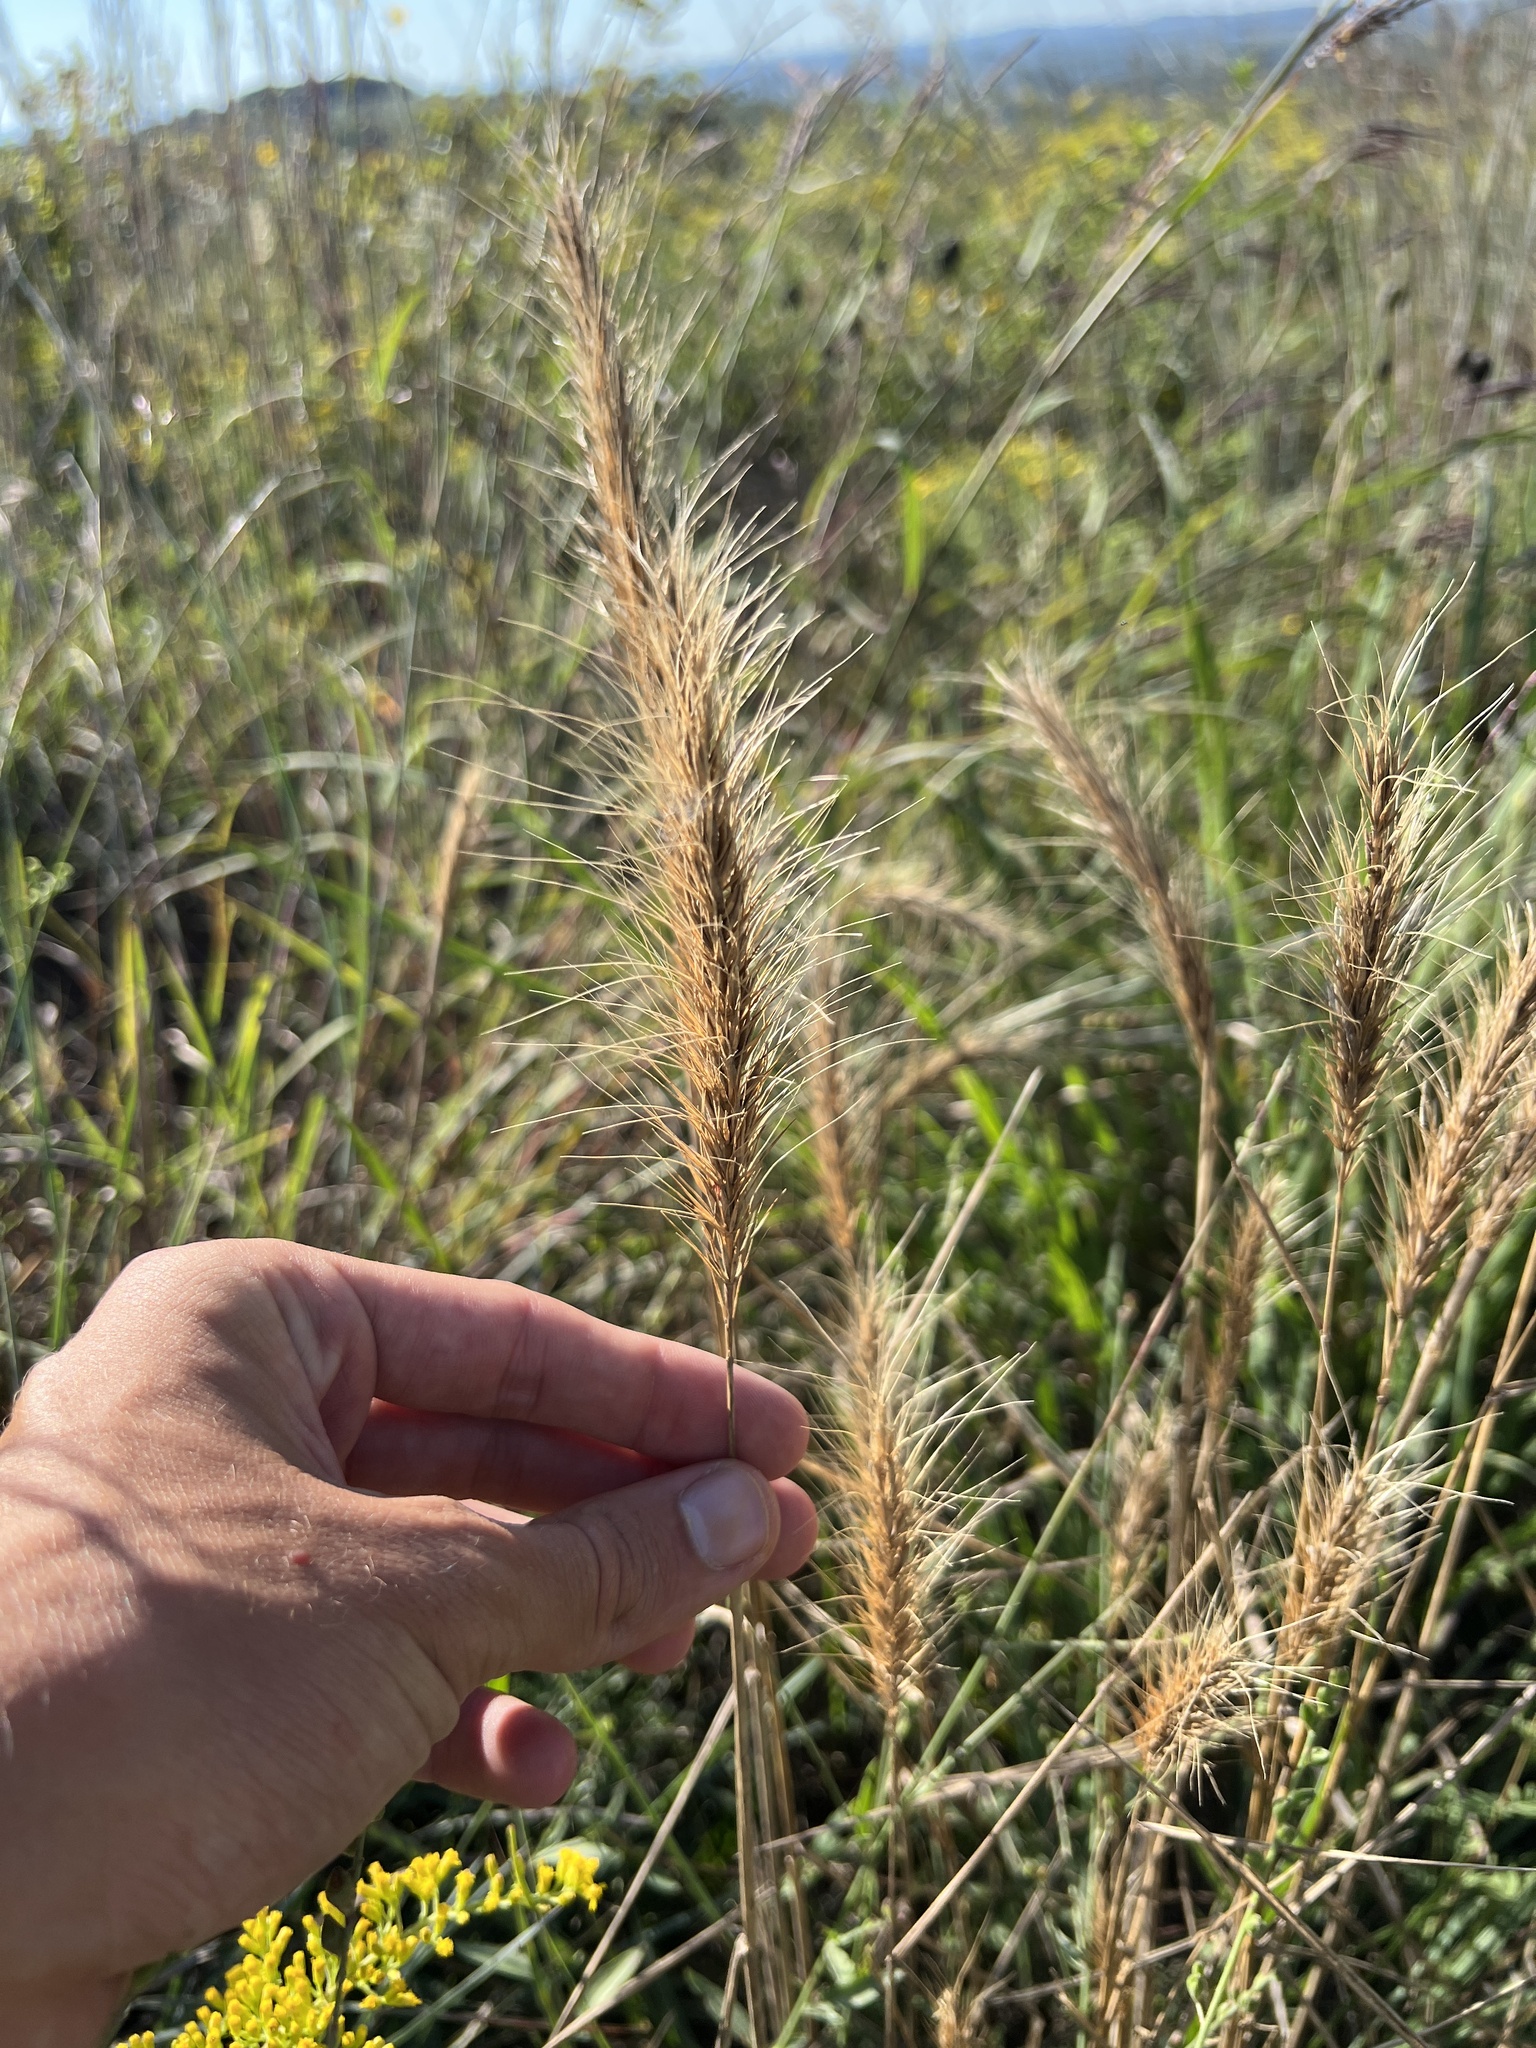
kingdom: Plantae
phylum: Tracheophyta
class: Liliopsida
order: Poales
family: Poaceae
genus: Elymus
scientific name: Elymus canadensis
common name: Canada wild rye
